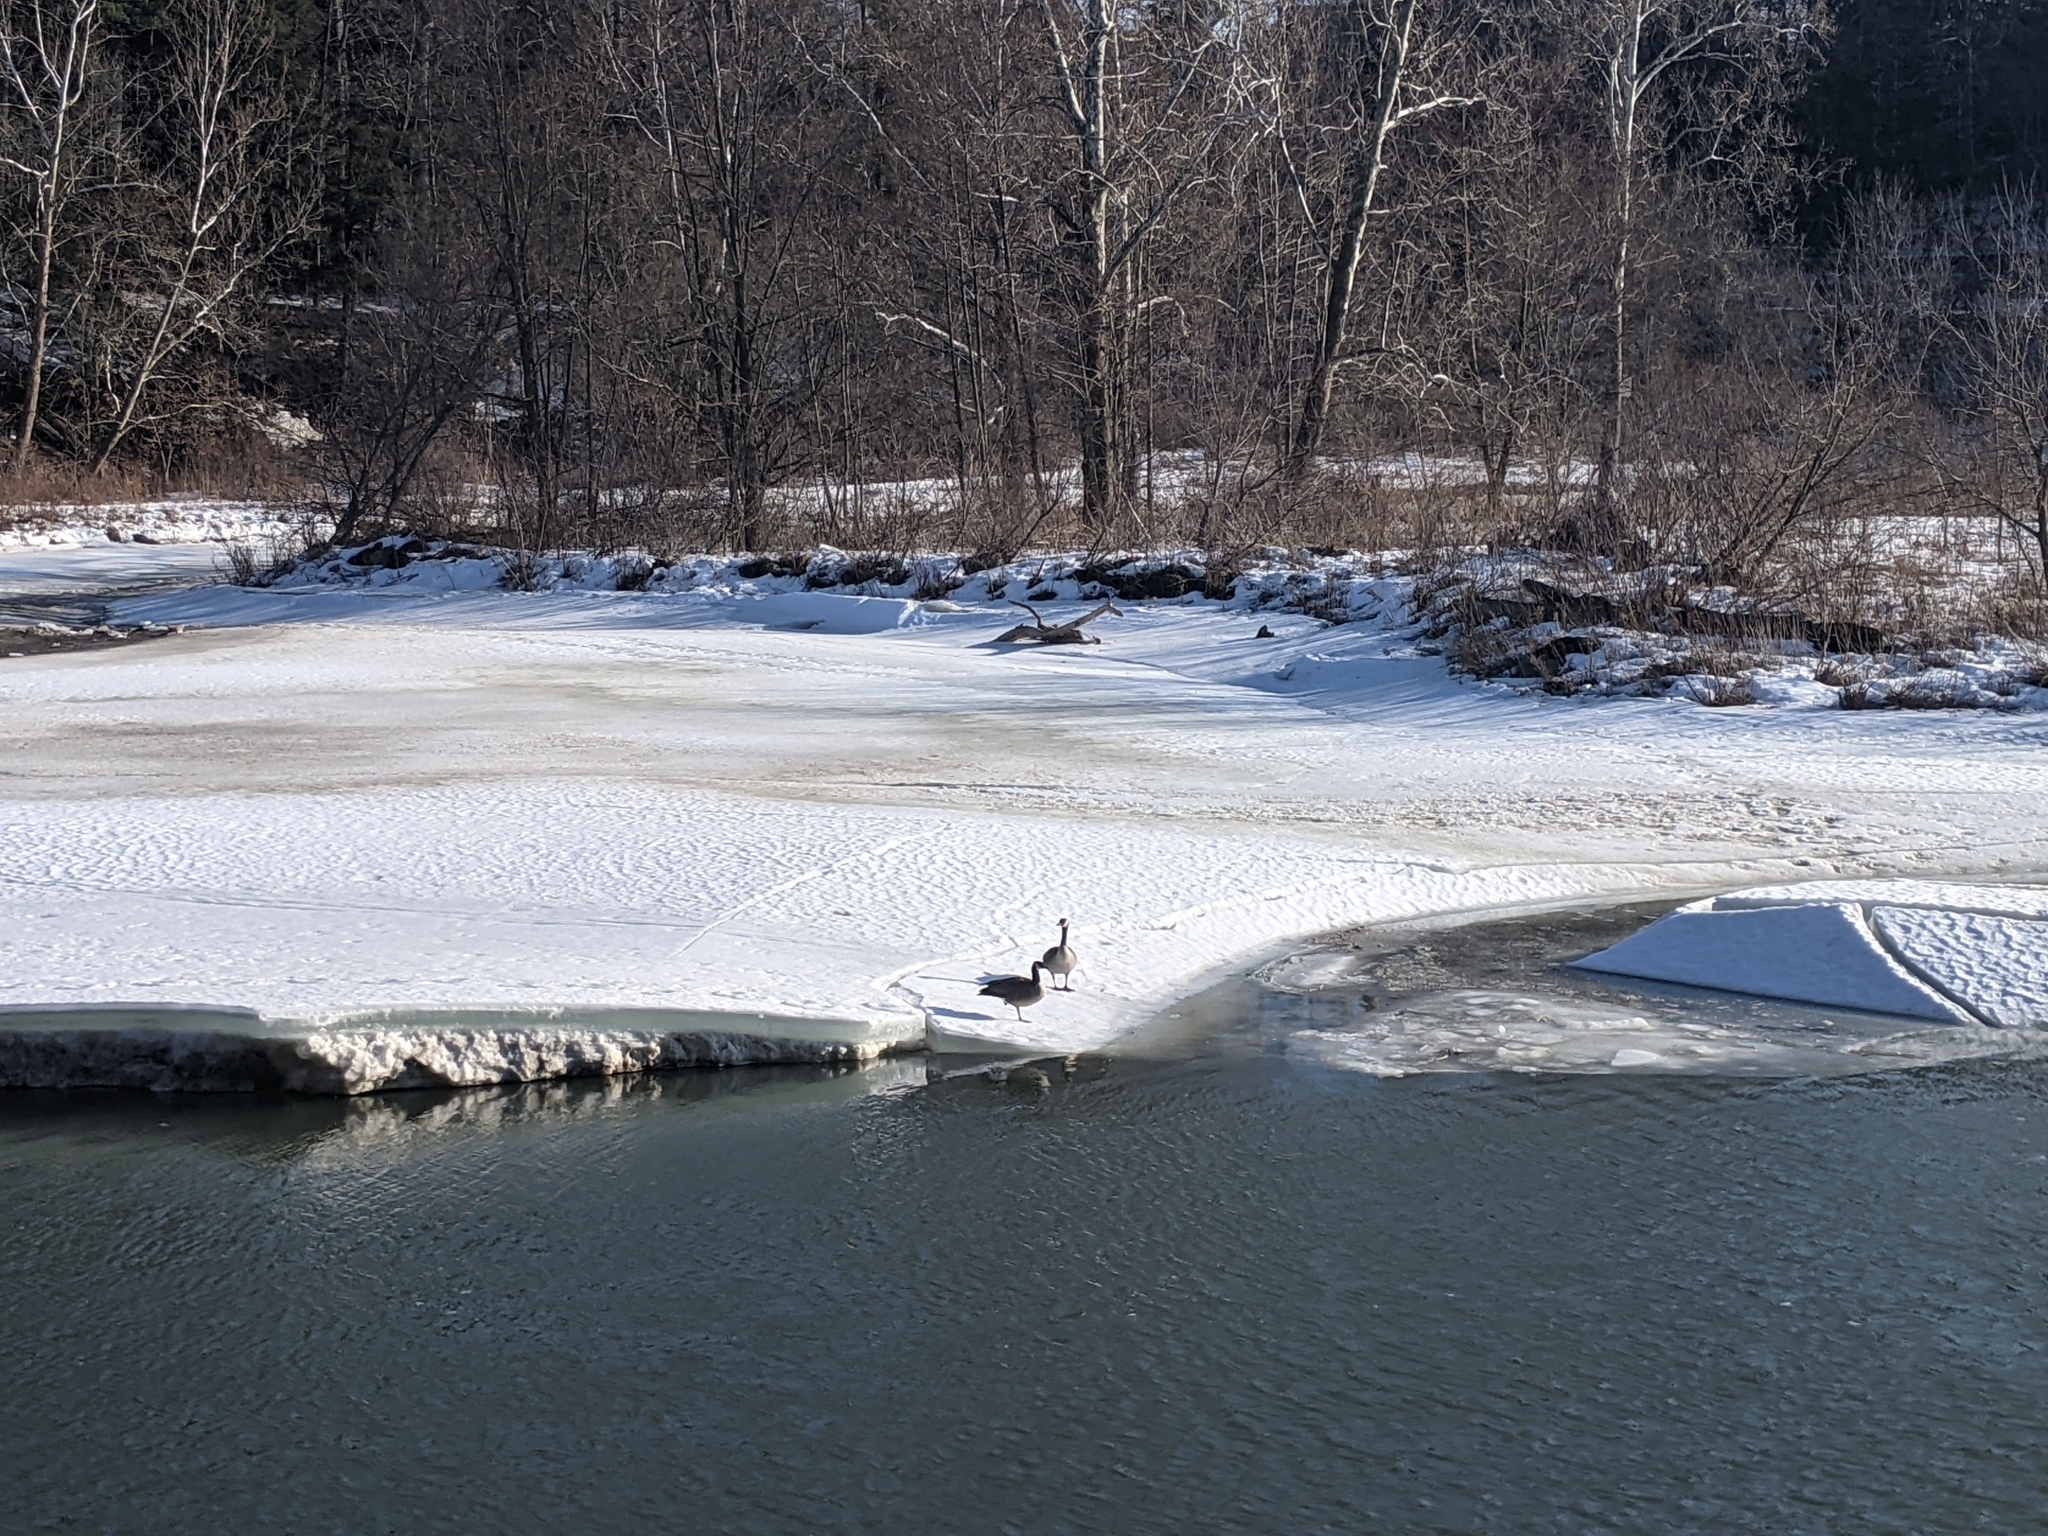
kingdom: Animalia
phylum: Chordata
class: Aves
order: Anseriformes
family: Anatidae
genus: Branta
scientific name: Branta canadensis
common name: Canada goose
